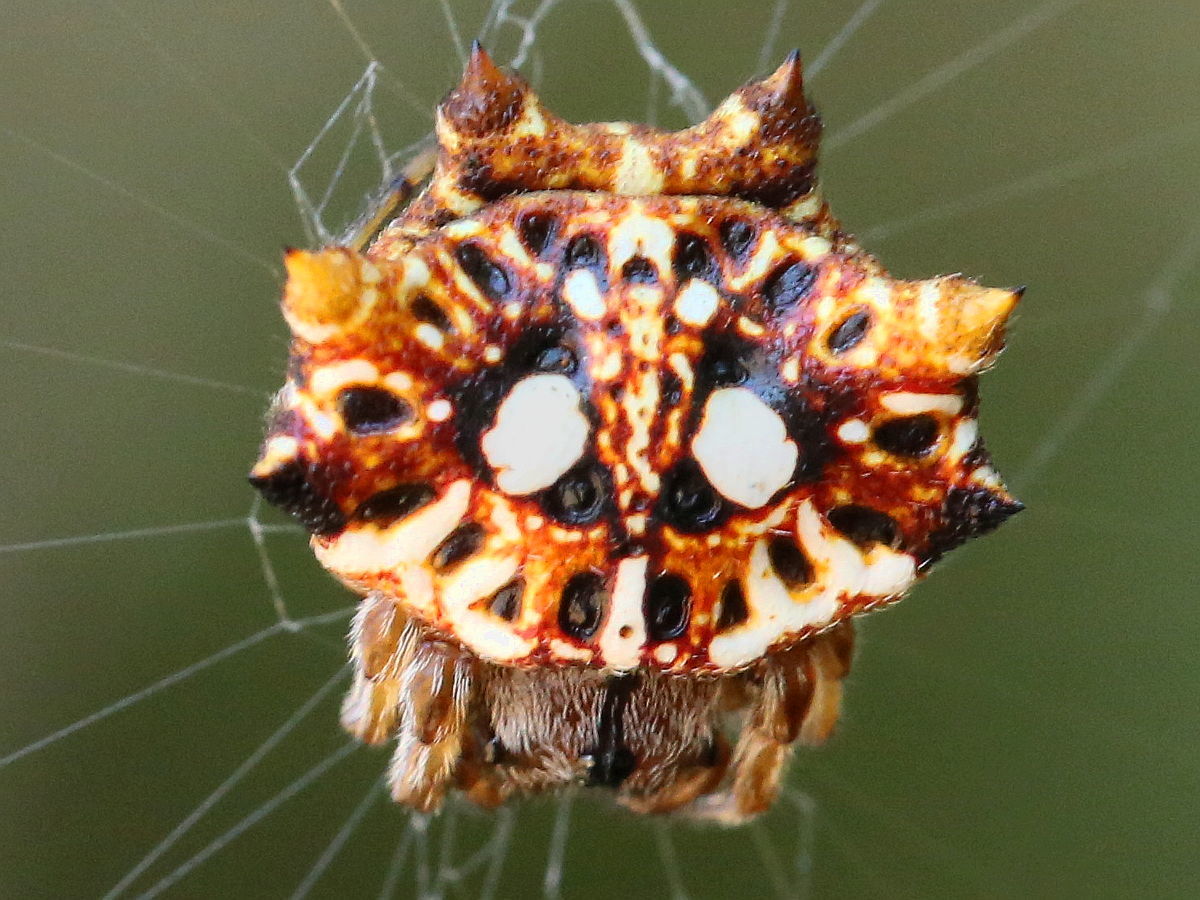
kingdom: Animalia
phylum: Arthropoda
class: Arachnida
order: Araneae
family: Araneidae
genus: Thelacantha
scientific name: Thelacantha brevispina
